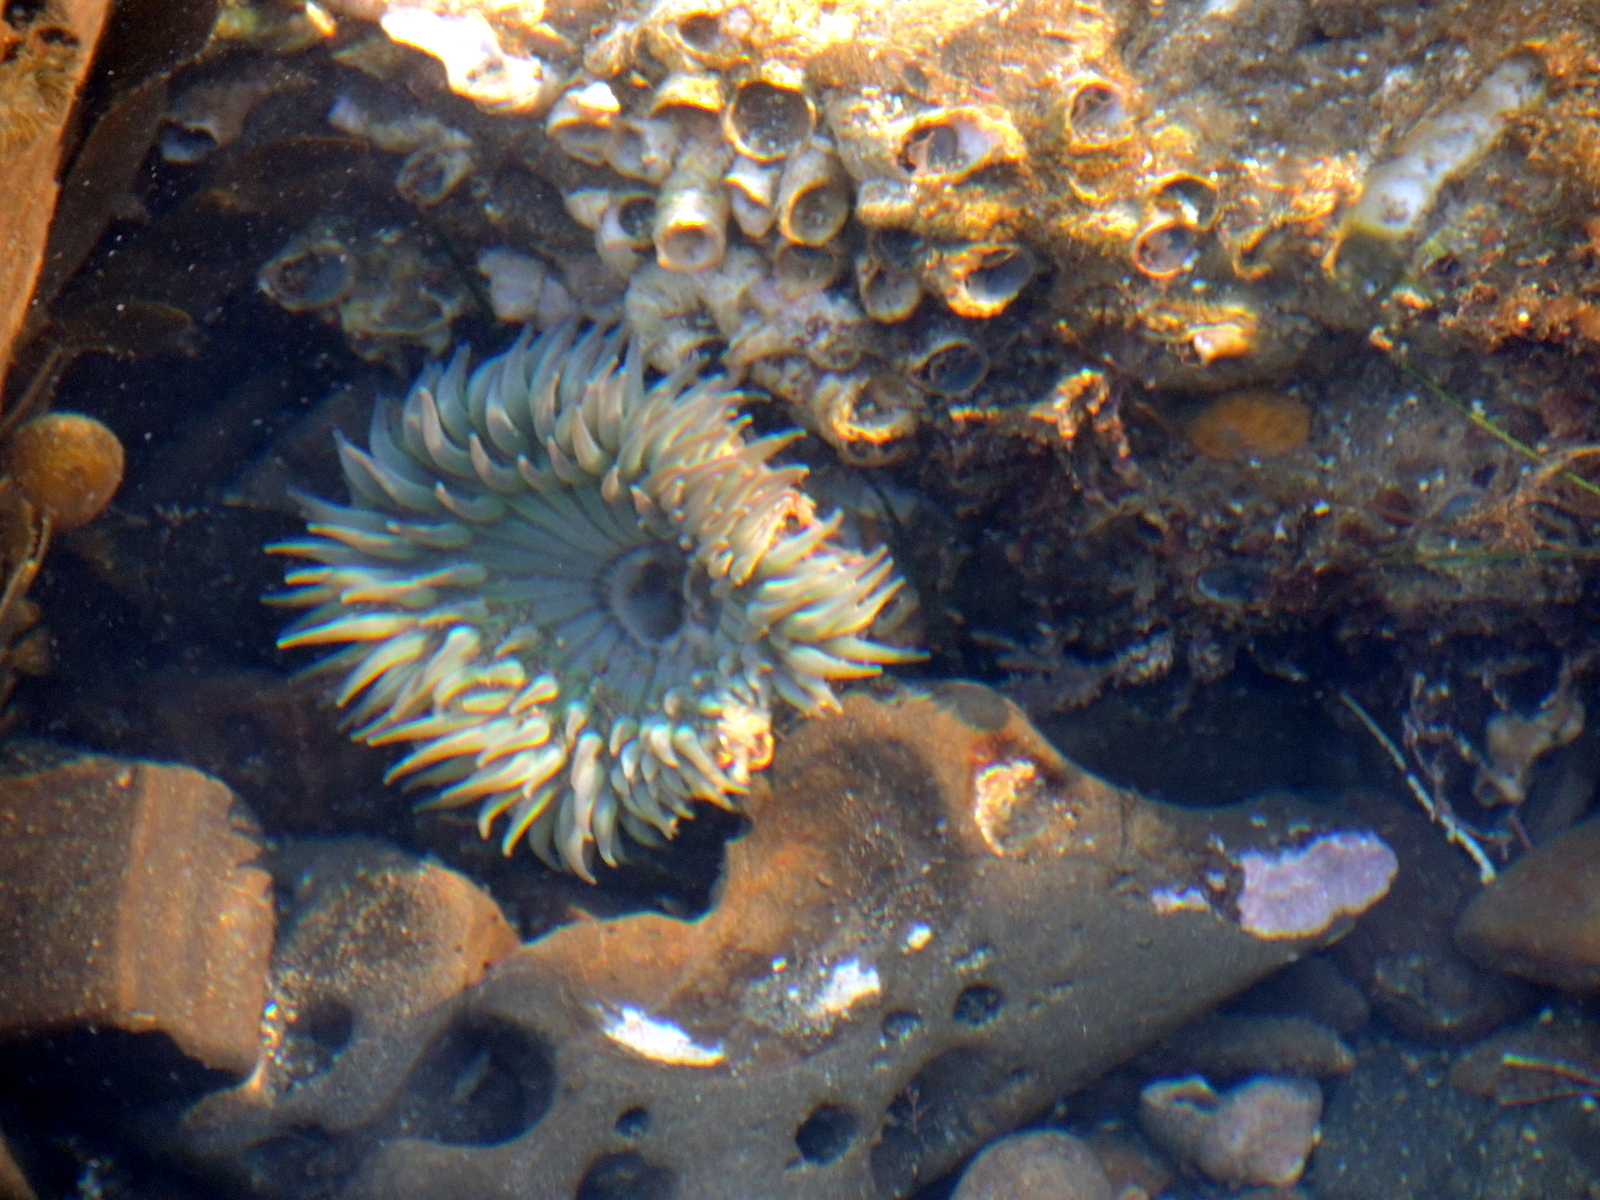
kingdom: Animalia
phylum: Cnidaria
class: Anthozoa
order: Actiniaria
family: Actiniidae
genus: Anthopleura
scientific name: Anthopleura sola
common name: Sun anemone
